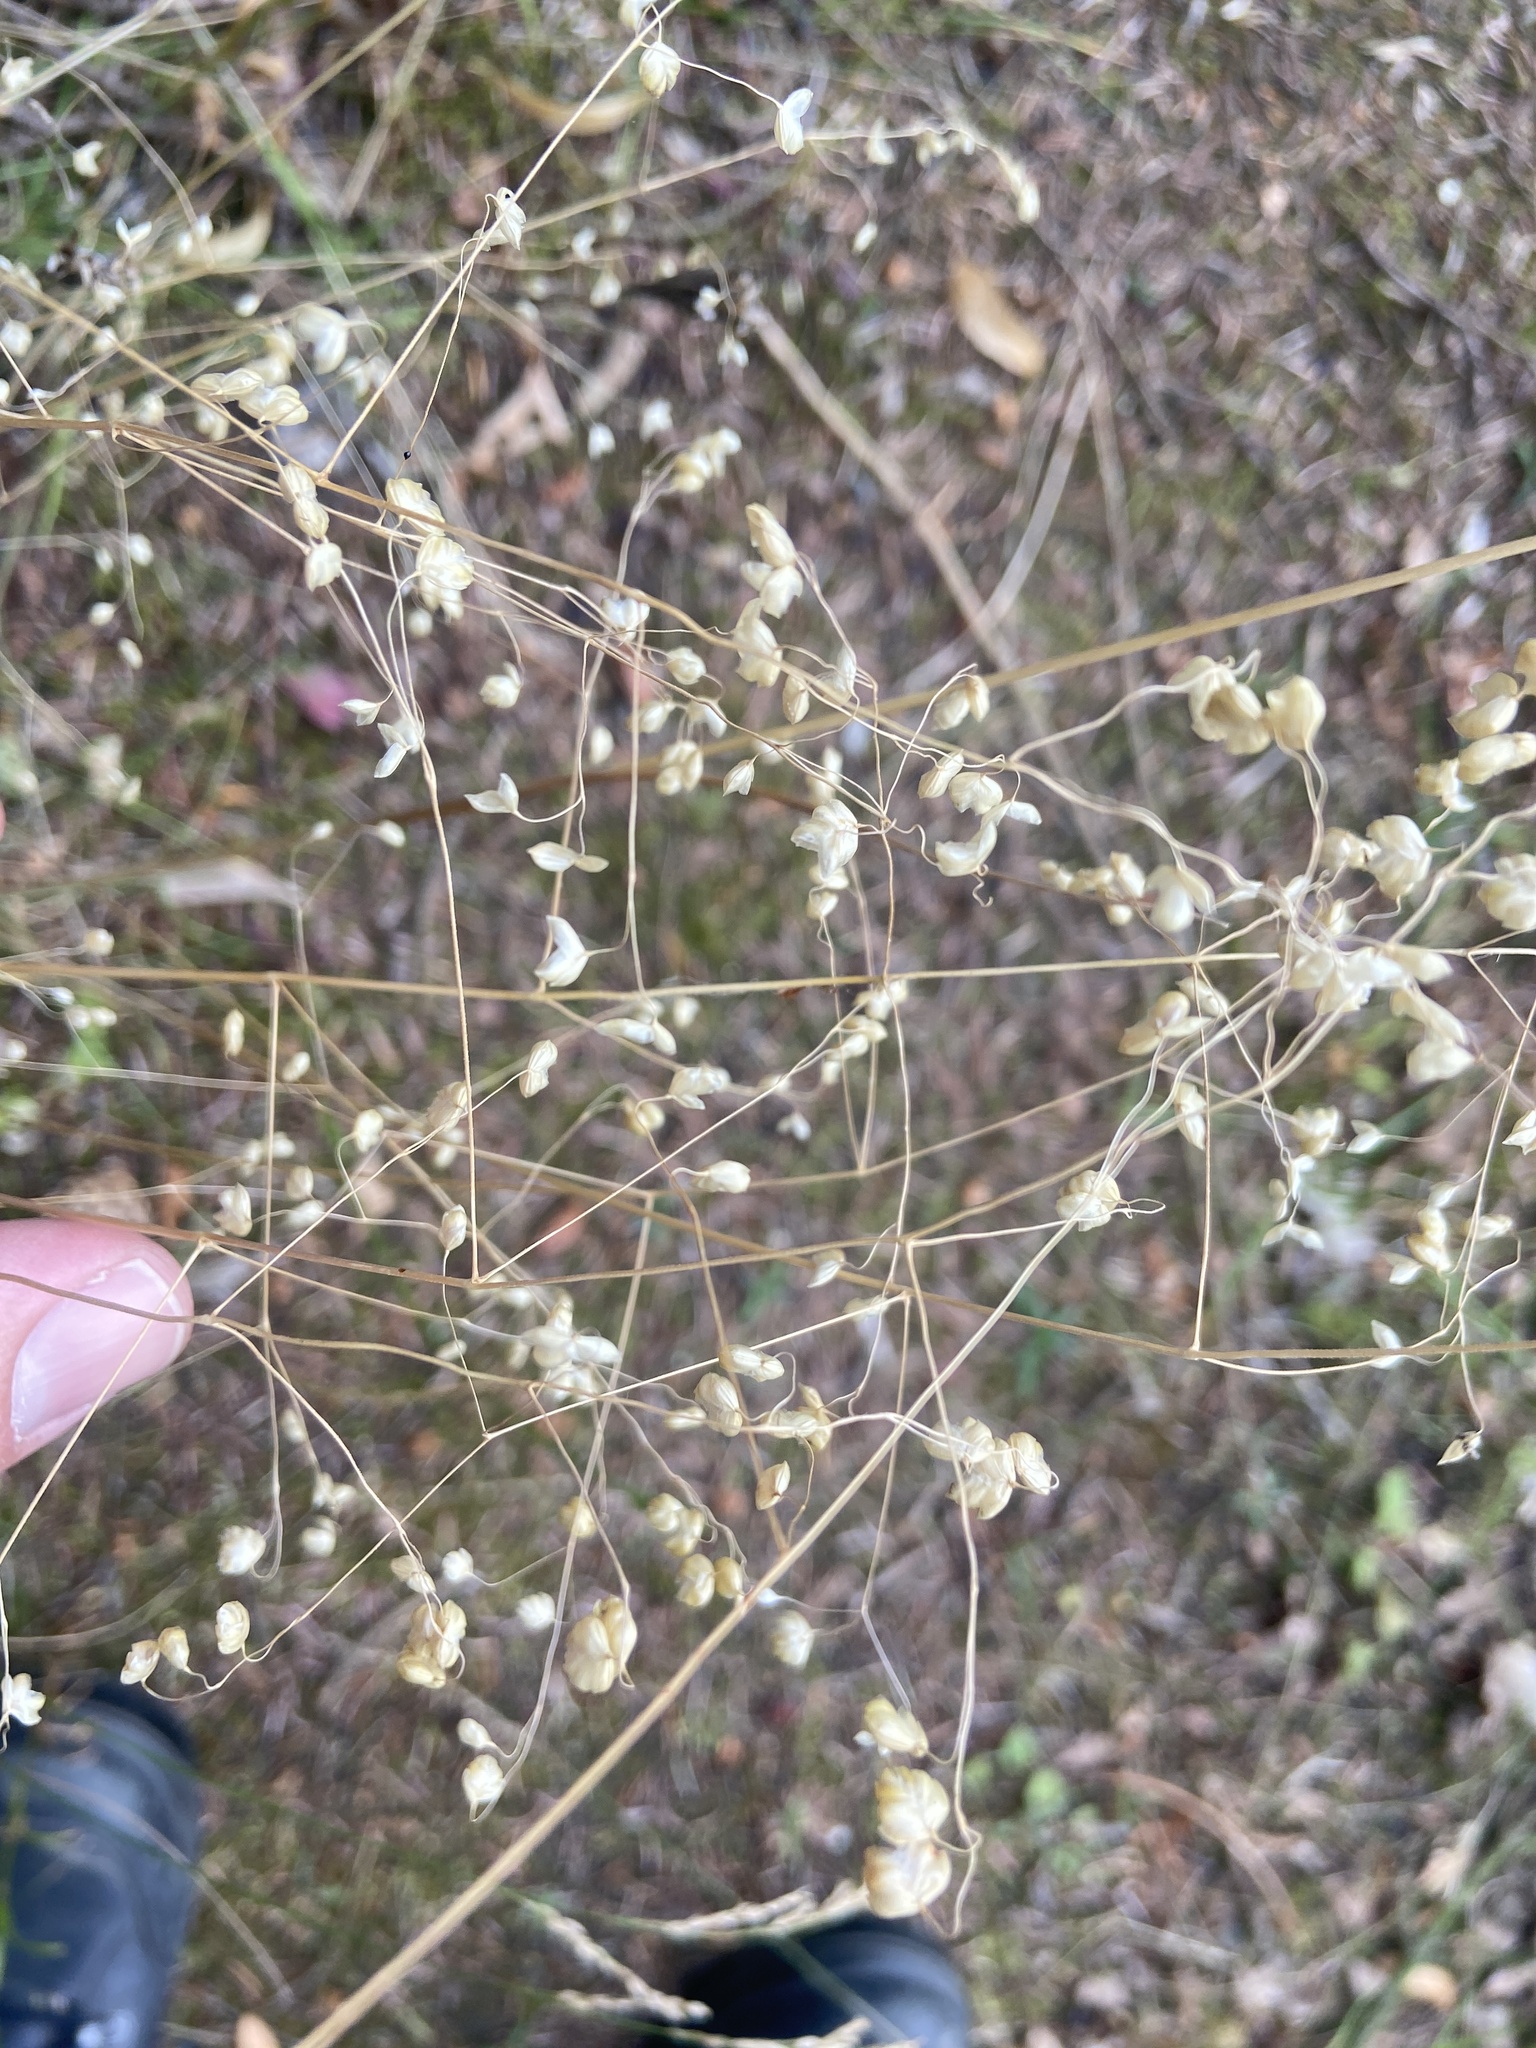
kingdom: Plantae
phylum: Tracheophyta
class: Liliopsida
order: Poales
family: Poaceae
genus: Briza
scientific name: Briza media
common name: Quaking grass
